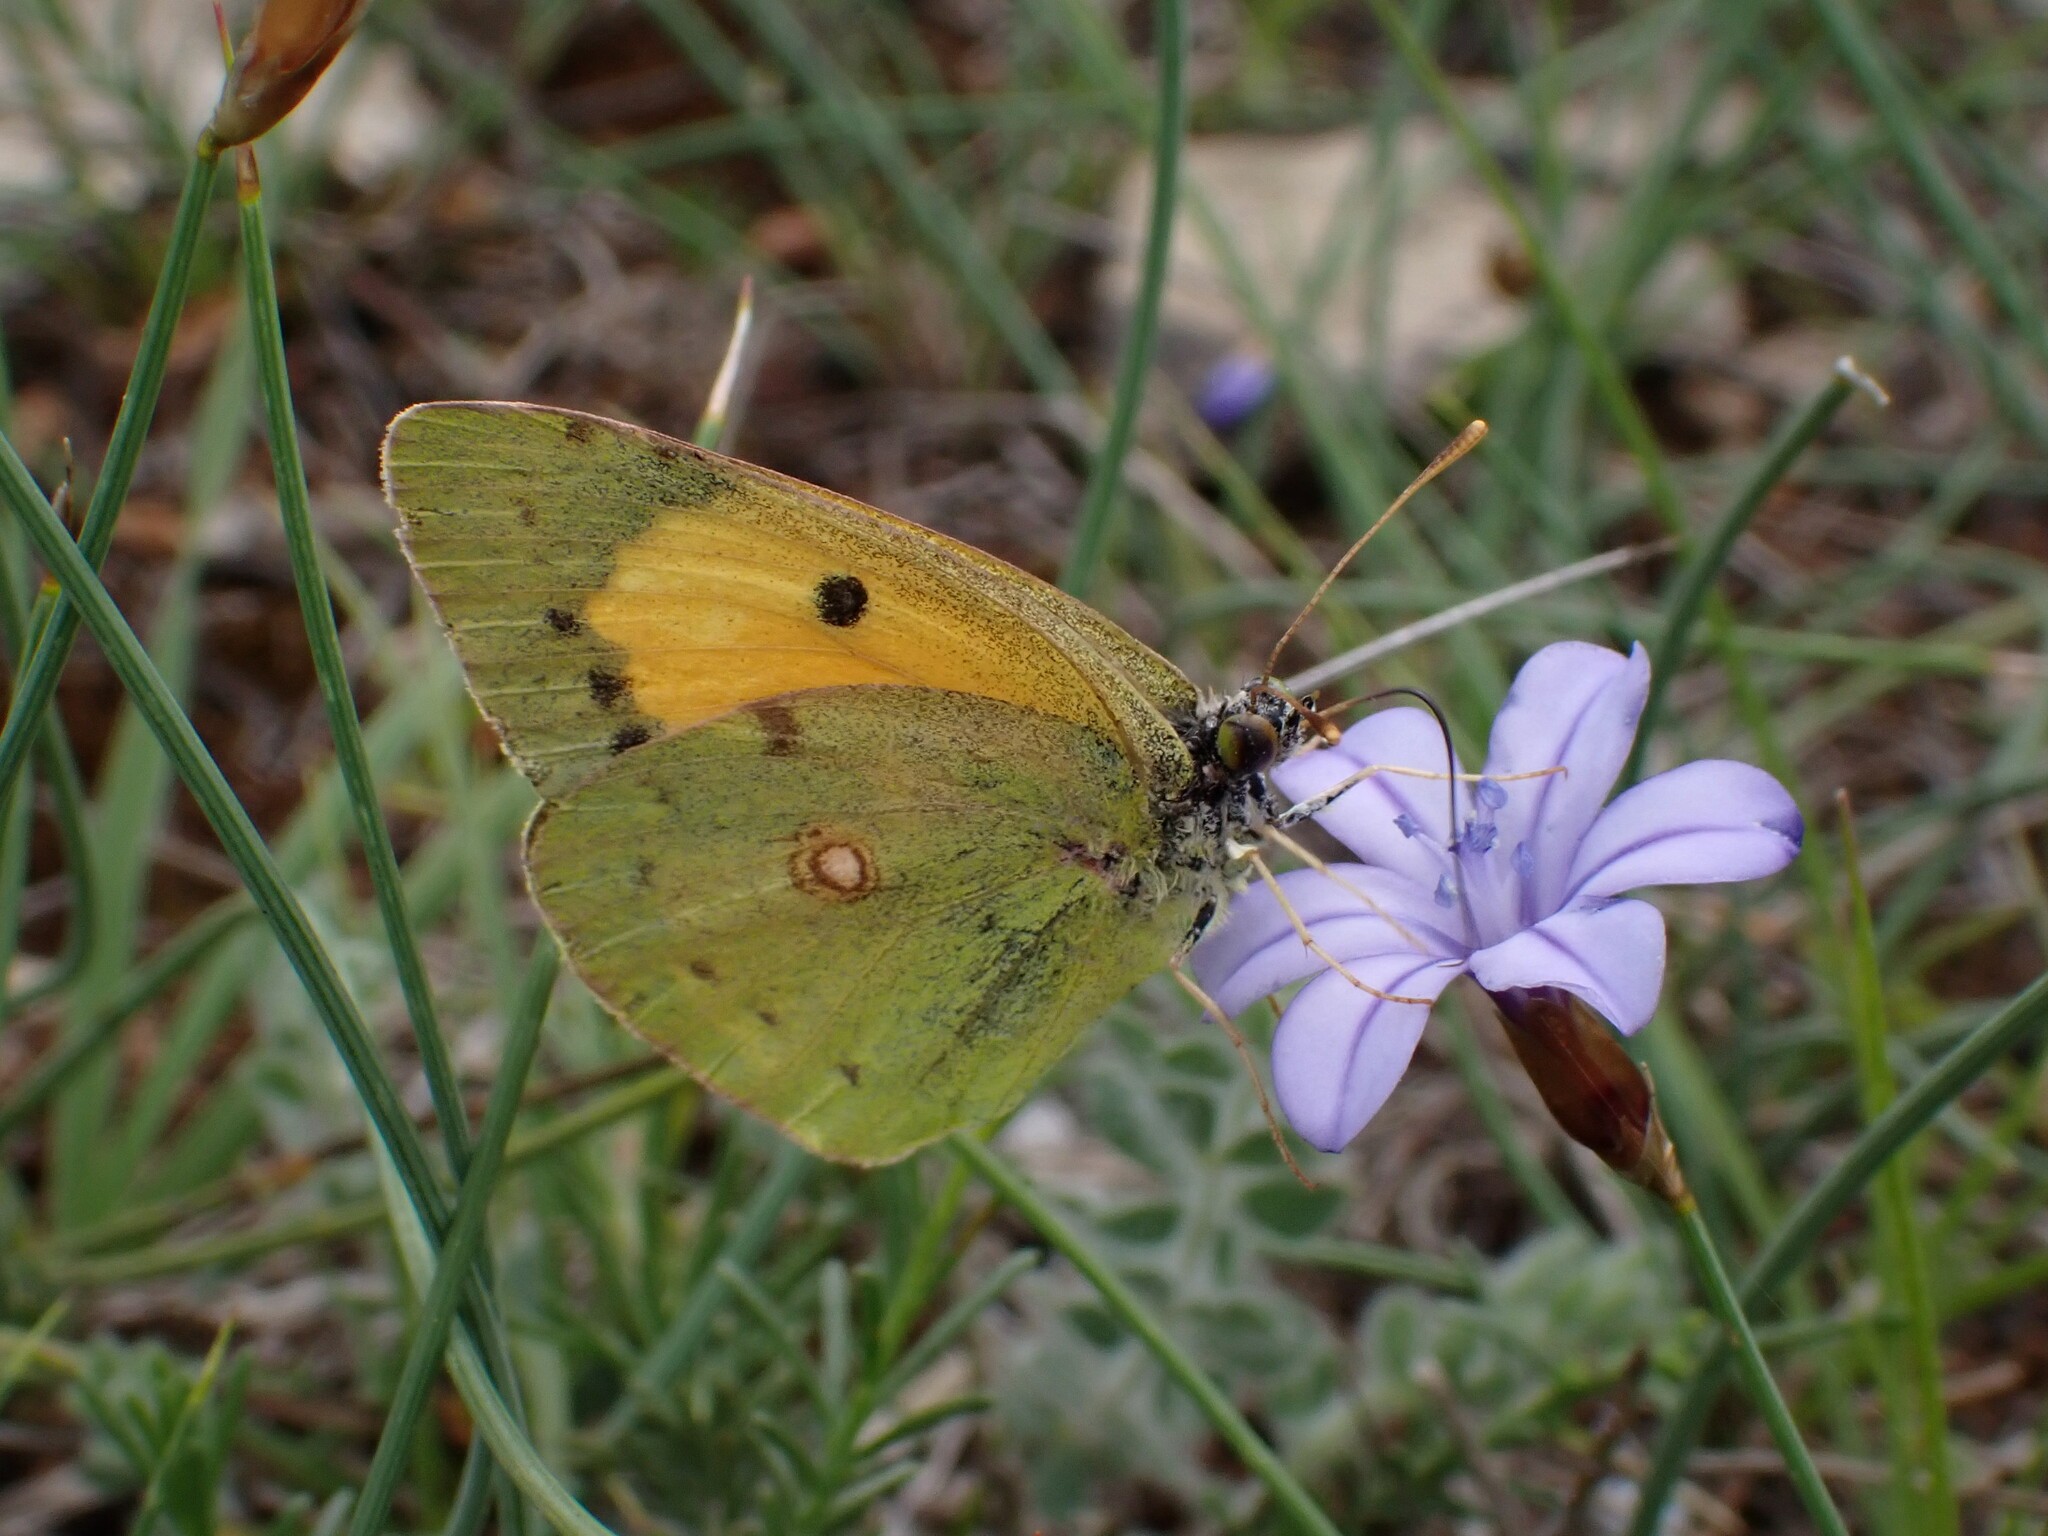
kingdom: Animalia
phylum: Arthropoda
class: Insecta
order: Lepidoptera
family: Pieridae
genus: Colias
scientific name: Colias croceus
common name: Clouded yellow
